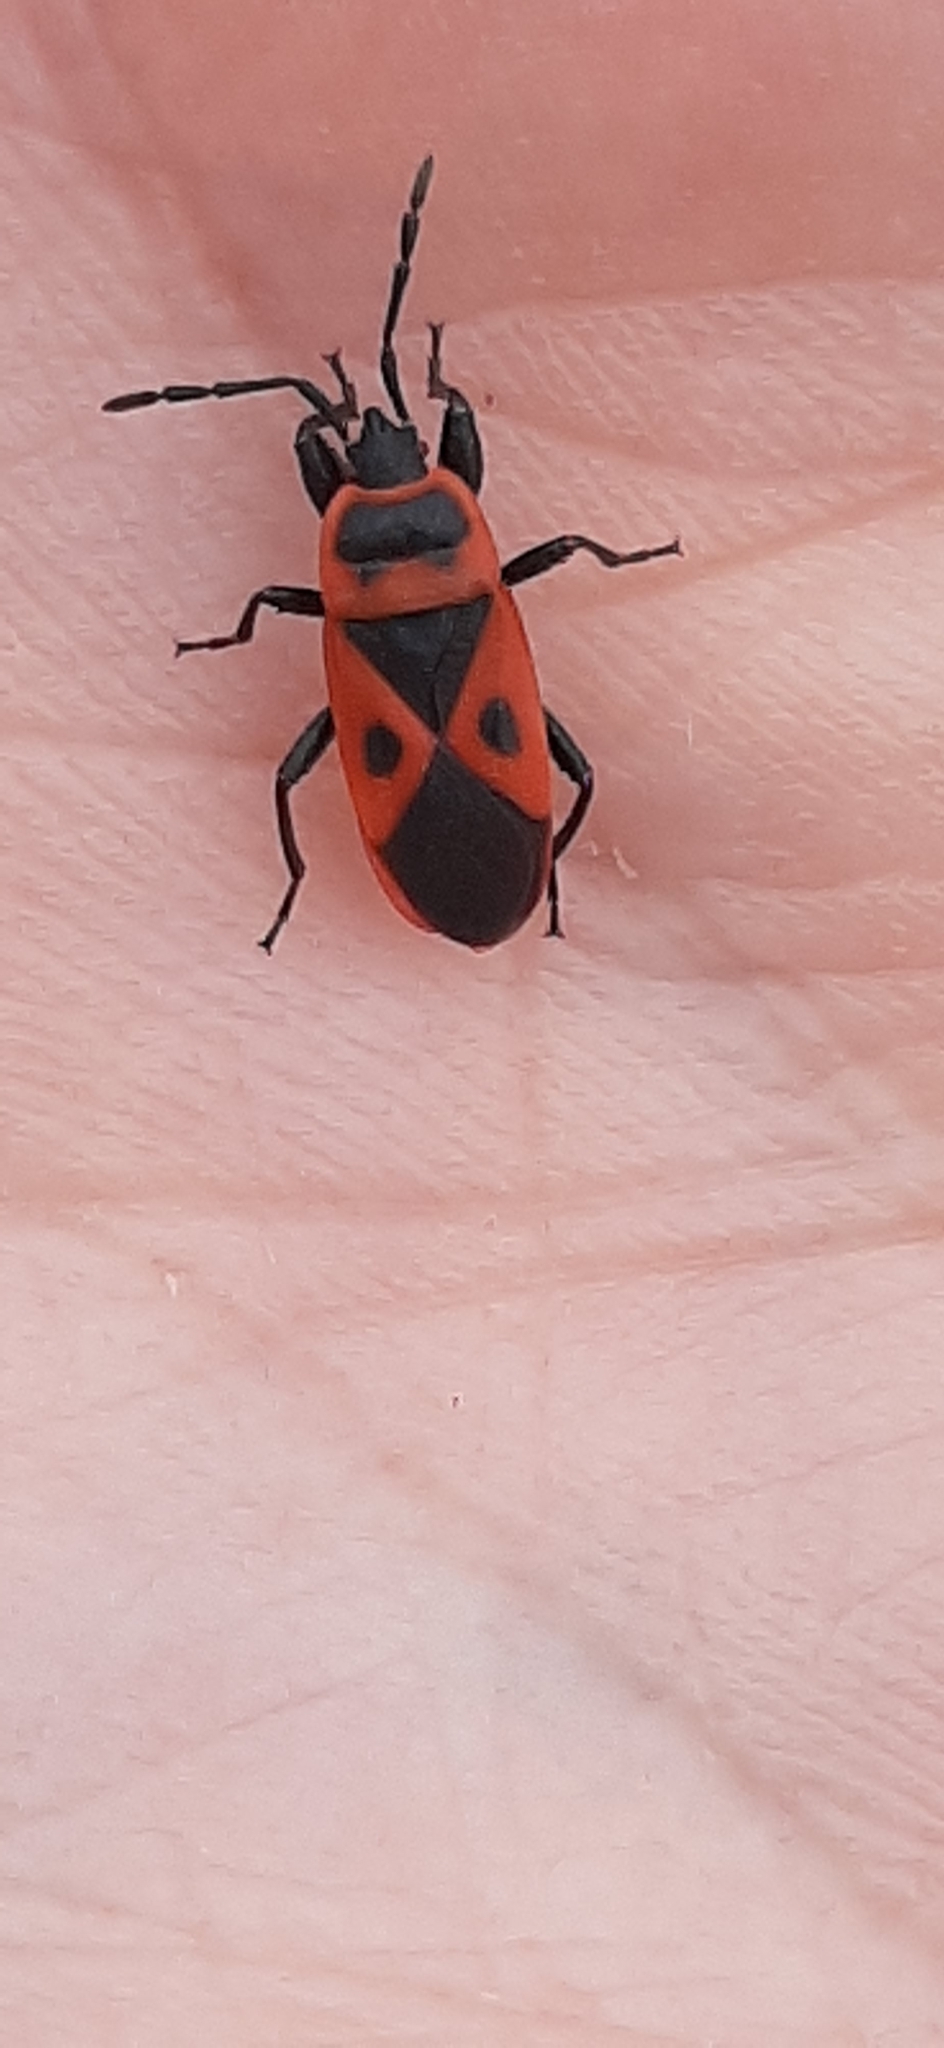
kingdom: Animalia
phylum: Arthropoda
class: Insecta
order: Hemiptera
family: Pyrrhocoridae
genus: Scantius
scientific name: Scantius aegyptius
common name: Red bug
